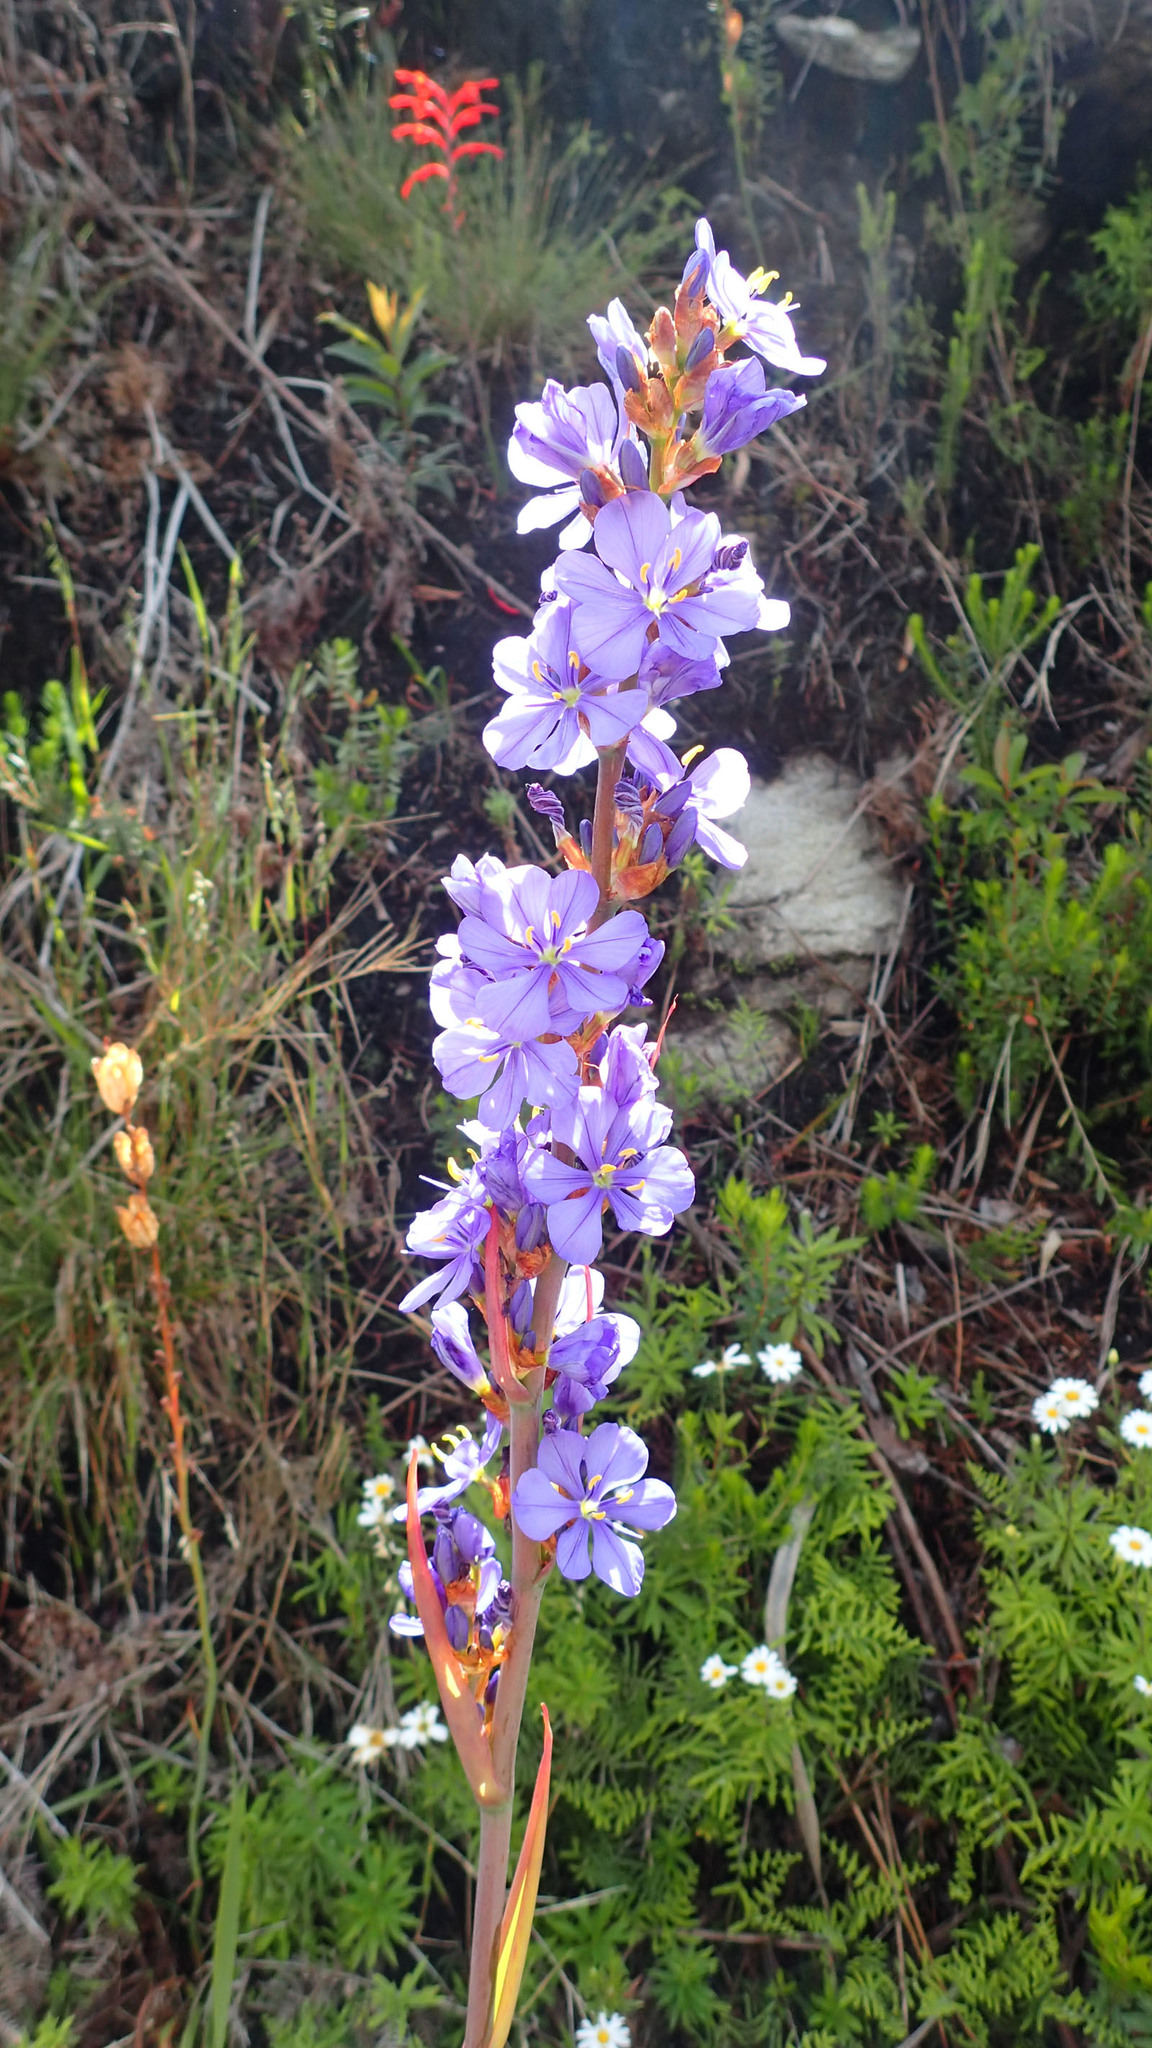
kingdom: Plantae
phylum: Tracheophyta
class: Liliopsida
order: Asparagales
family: Iridaceae
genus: Aristea
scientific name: Aristea bakeri
